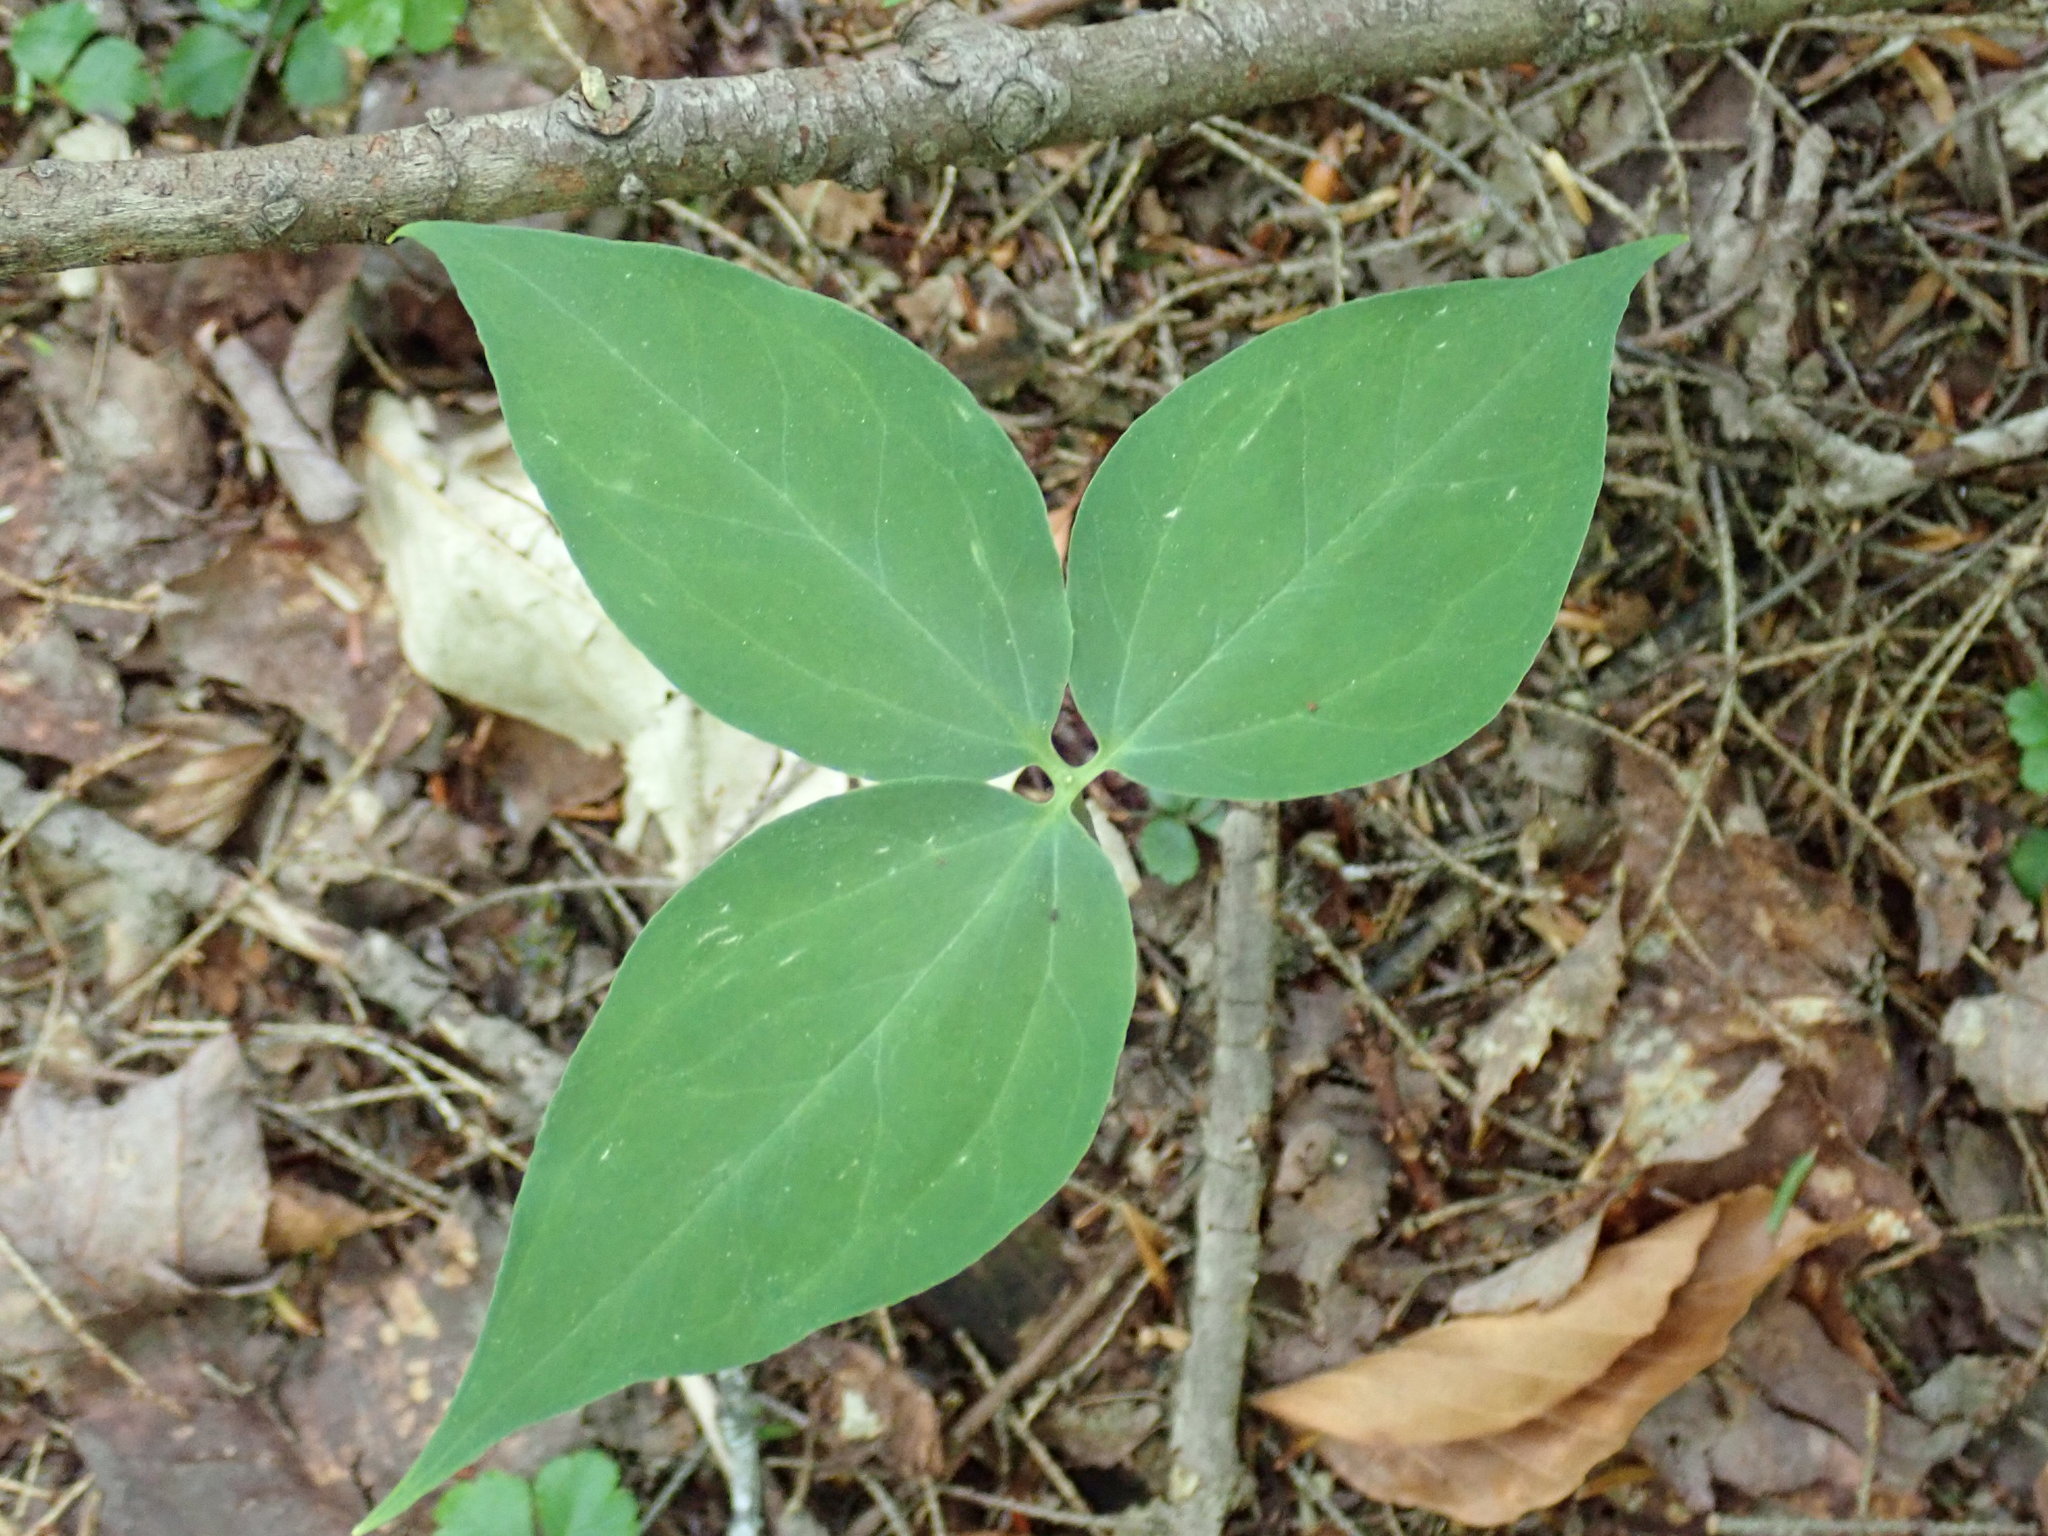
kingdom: Plantae
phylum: Tracheophyta
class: Liliopsida
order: Liliales
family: Melanthiaceae
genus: Trillium
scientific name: Trillium undulatum
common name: Paint trillium
